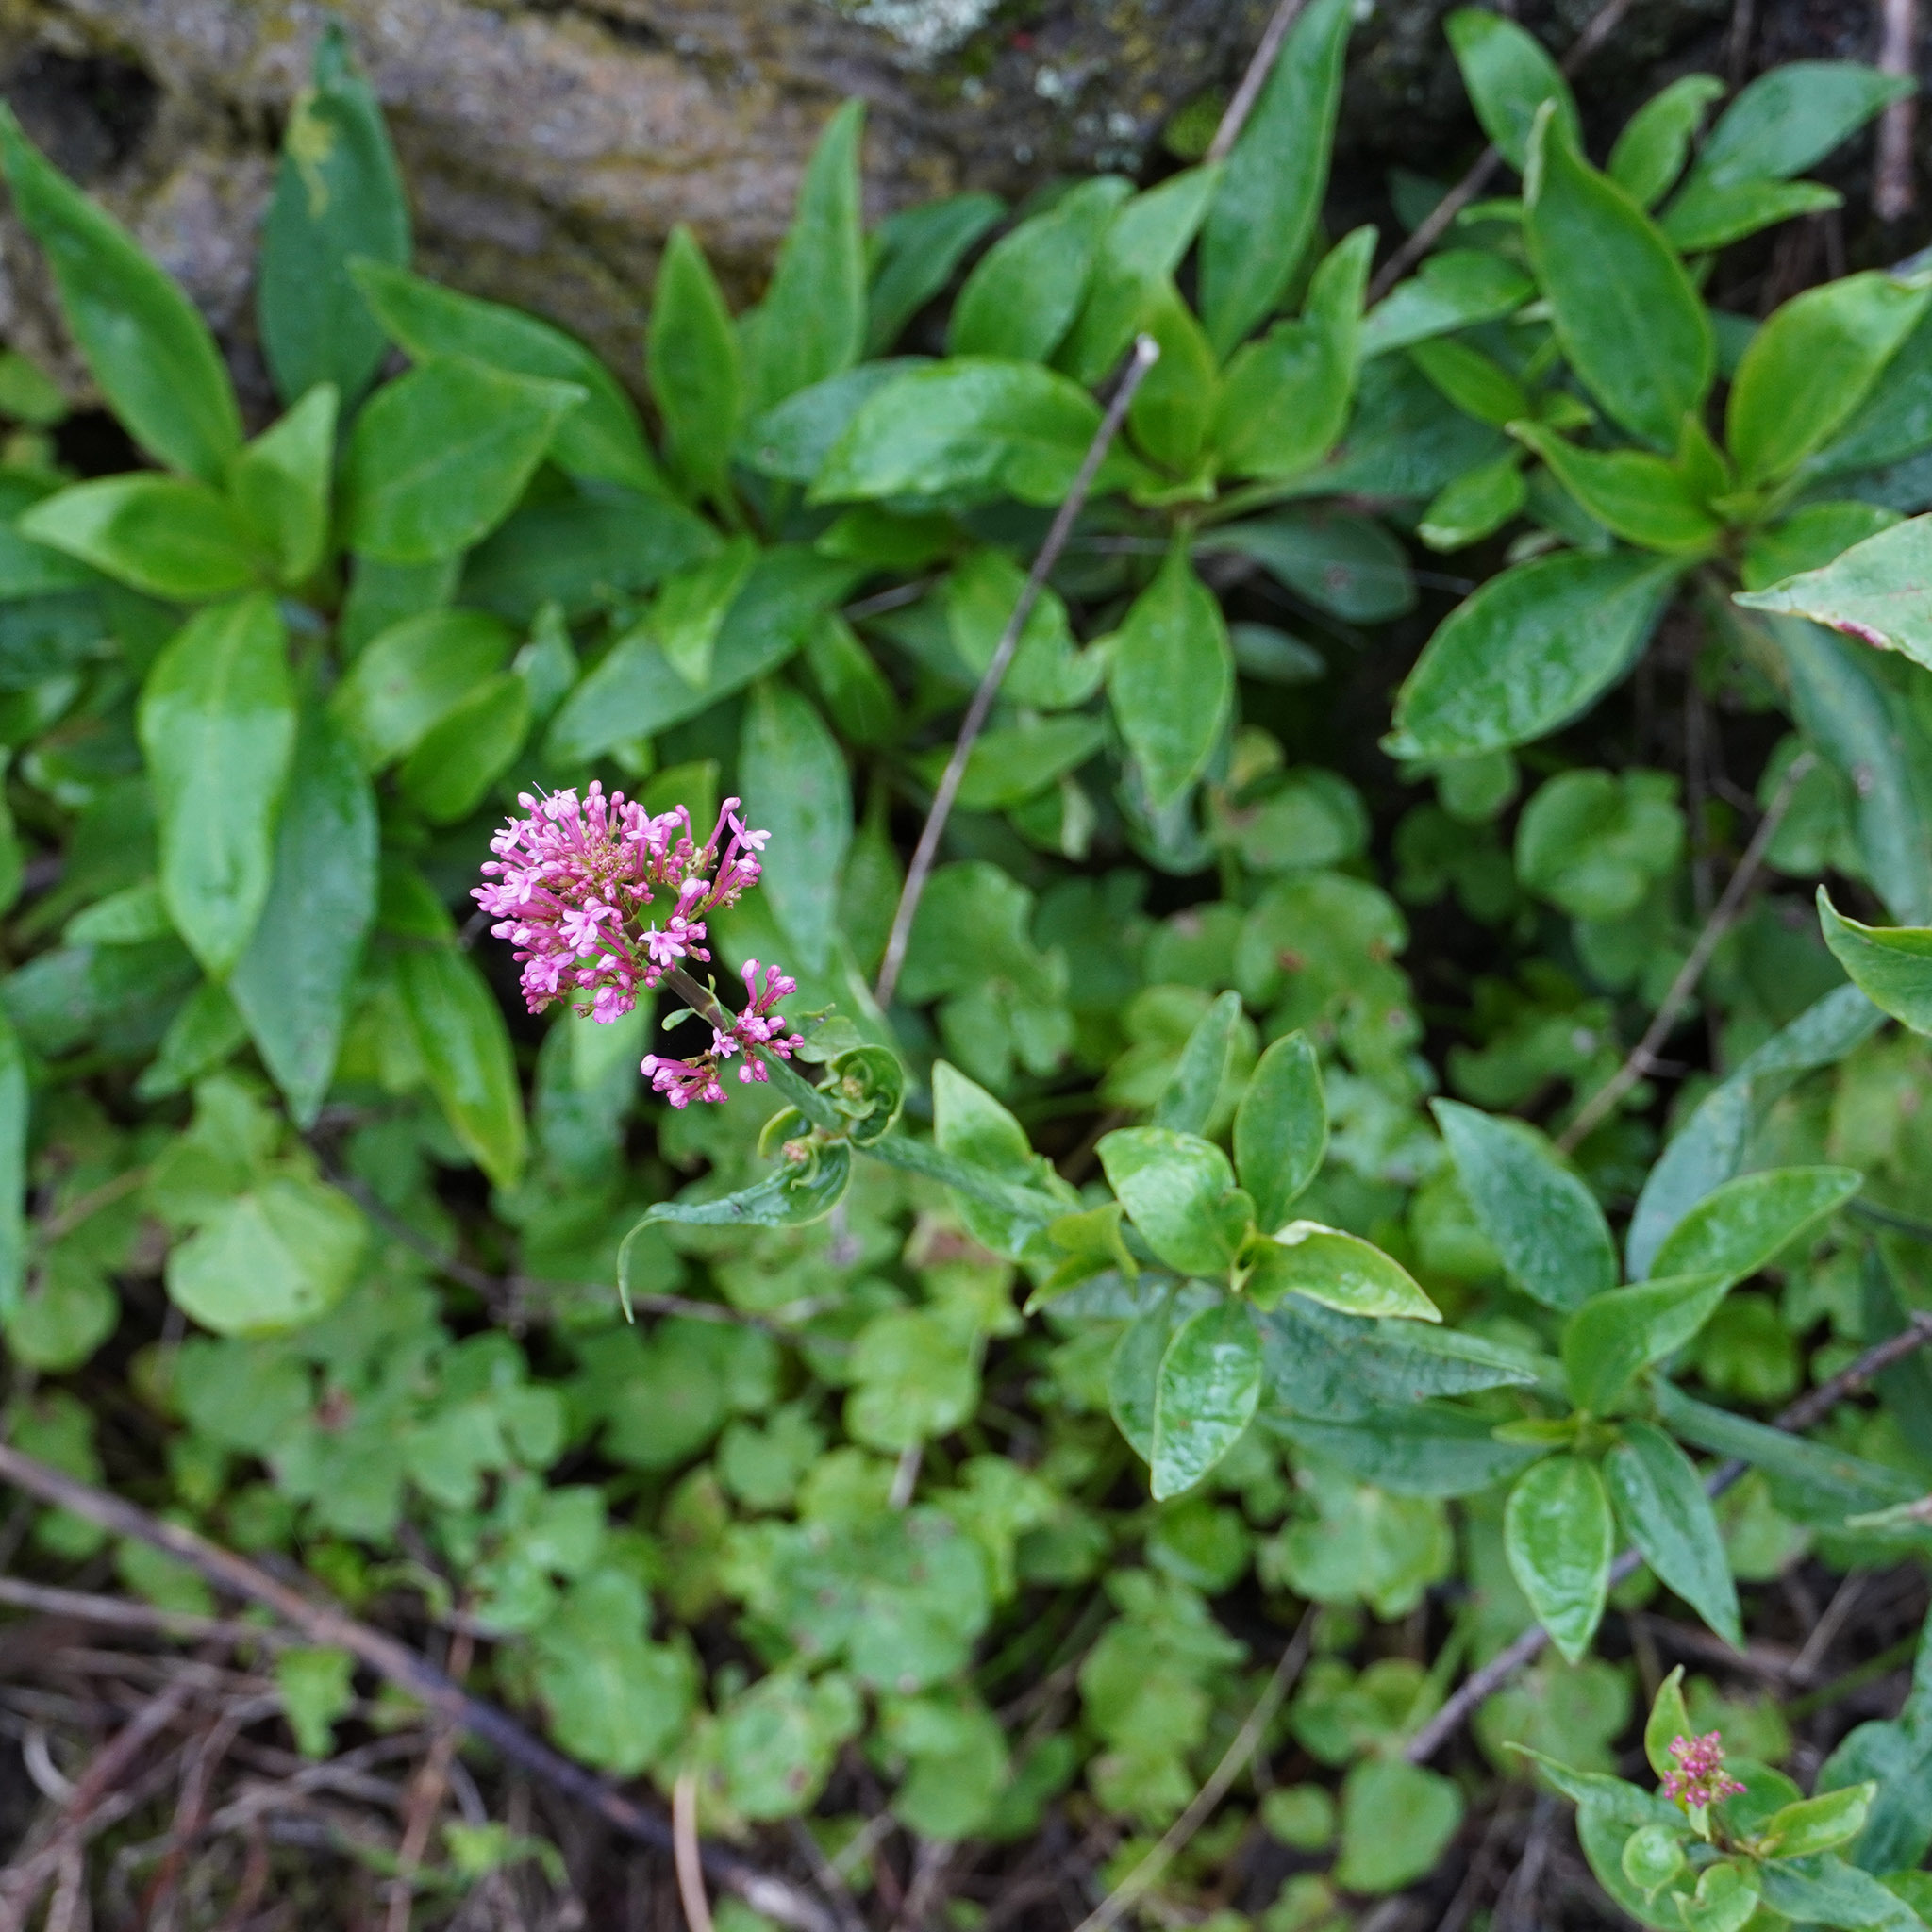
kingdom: Plantae
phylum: Tracheophyta
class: Magnoliopsida
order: Dipsacales
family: Caprifoliaceae
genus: Centranthus
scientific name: Centranthus ruber
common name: Red valerian
